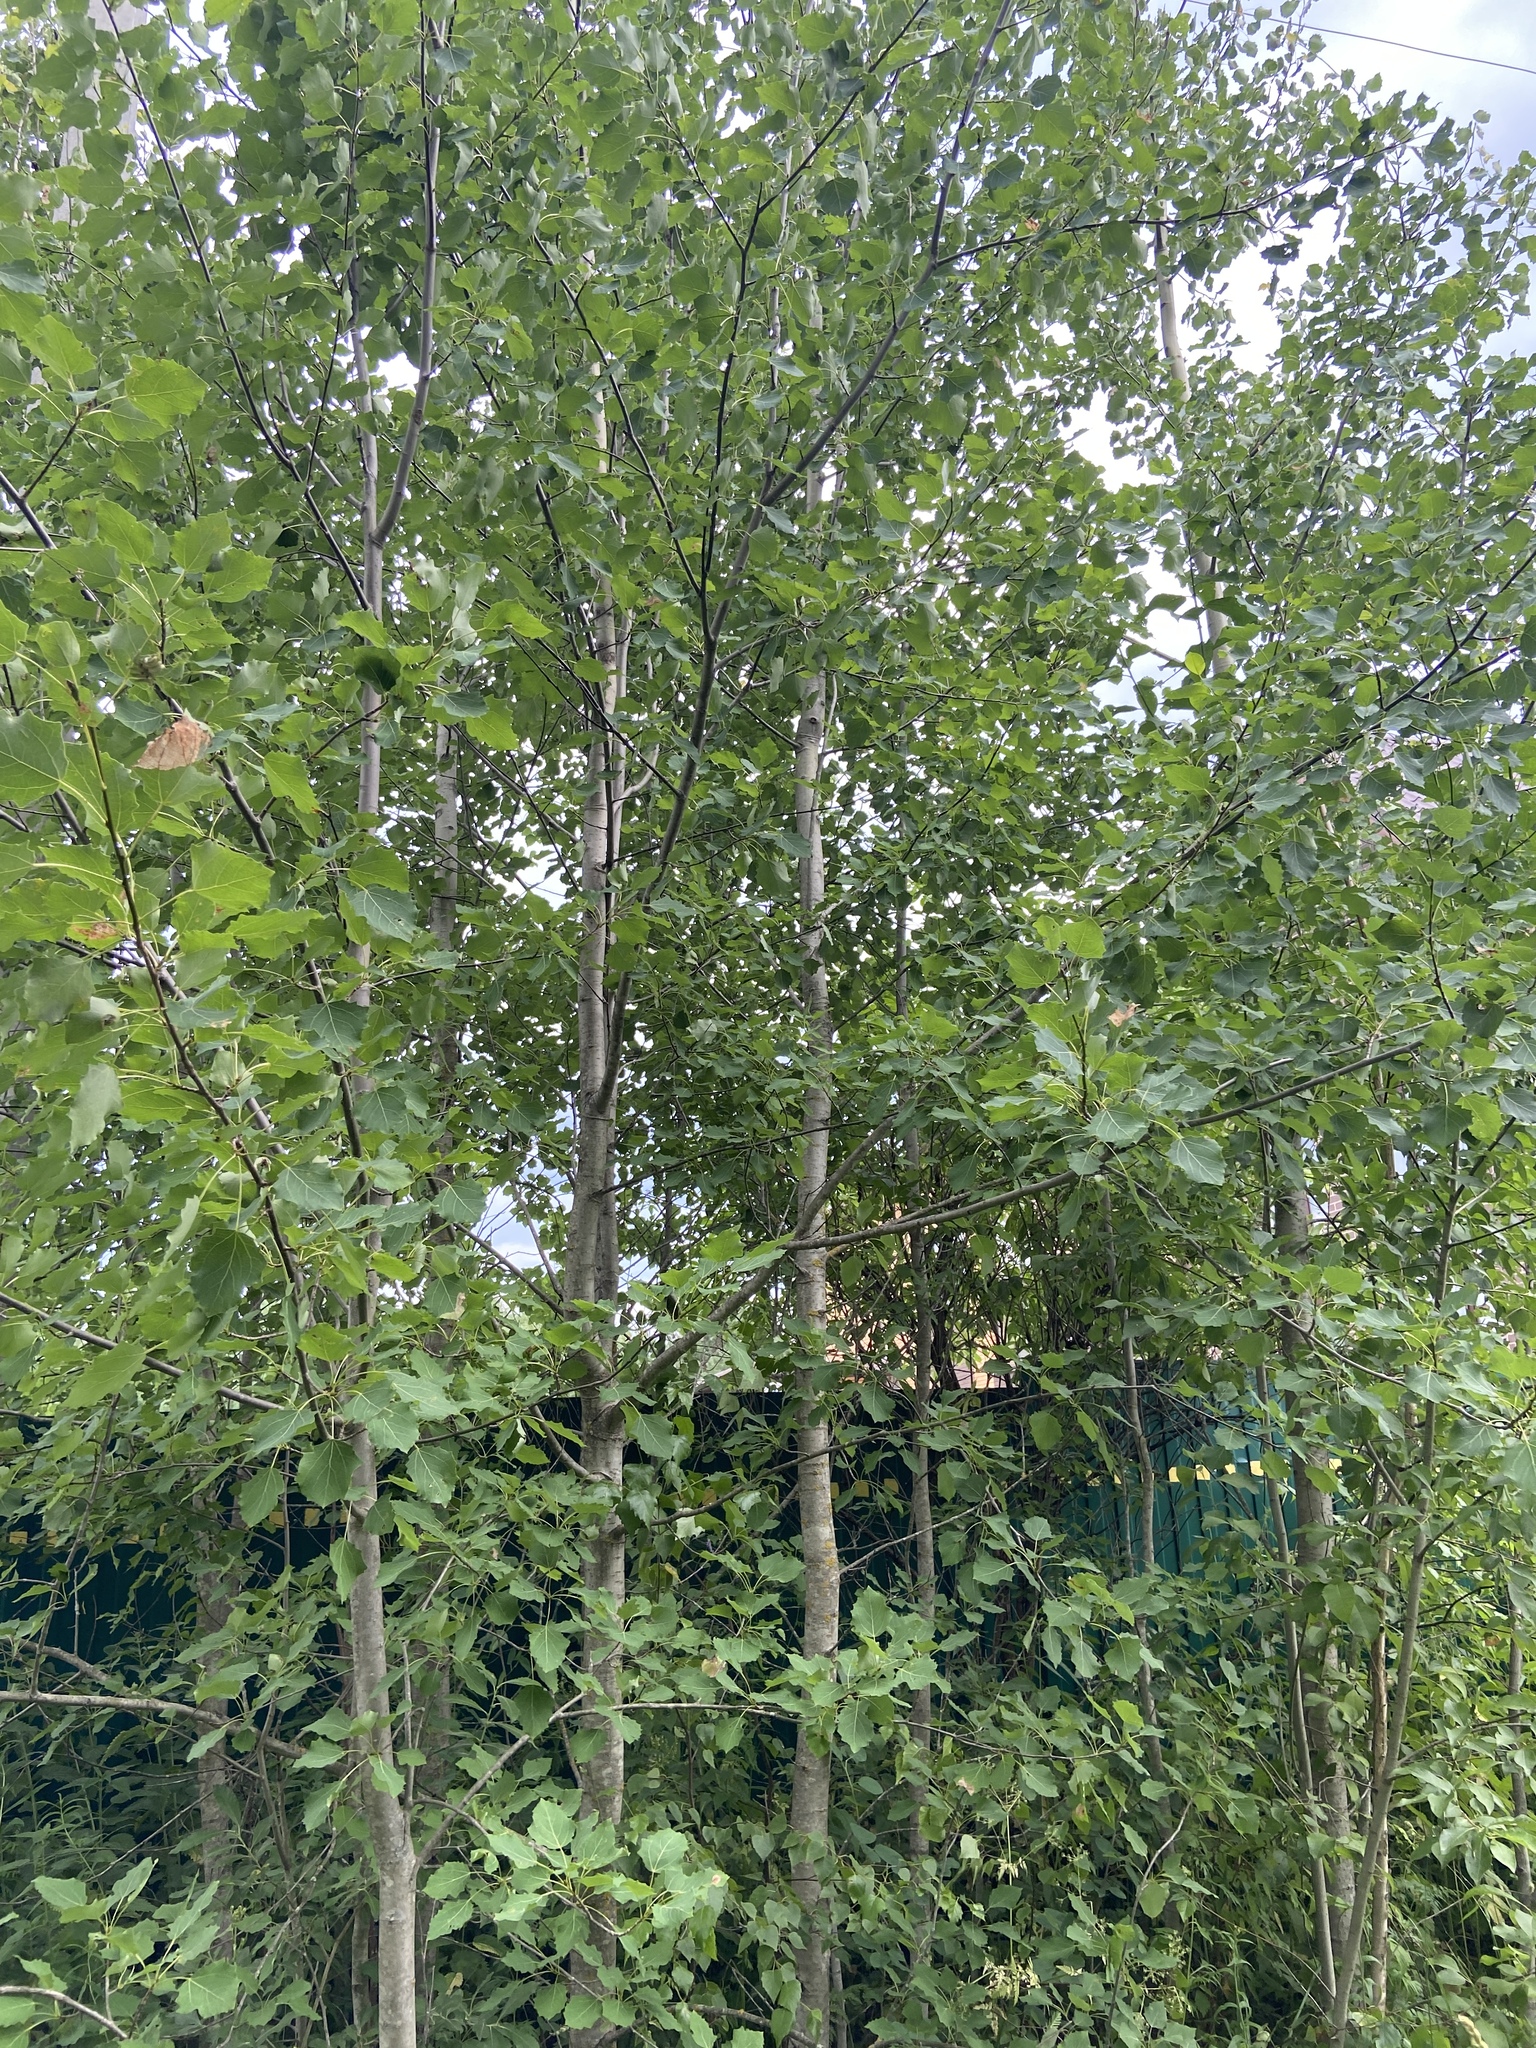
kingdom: Plantae
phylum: Tracheophyta
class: Magnoliopsida
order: Malpighiales
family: Salicaceae
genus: Populus
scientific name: Populus tremula
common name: European aspen
